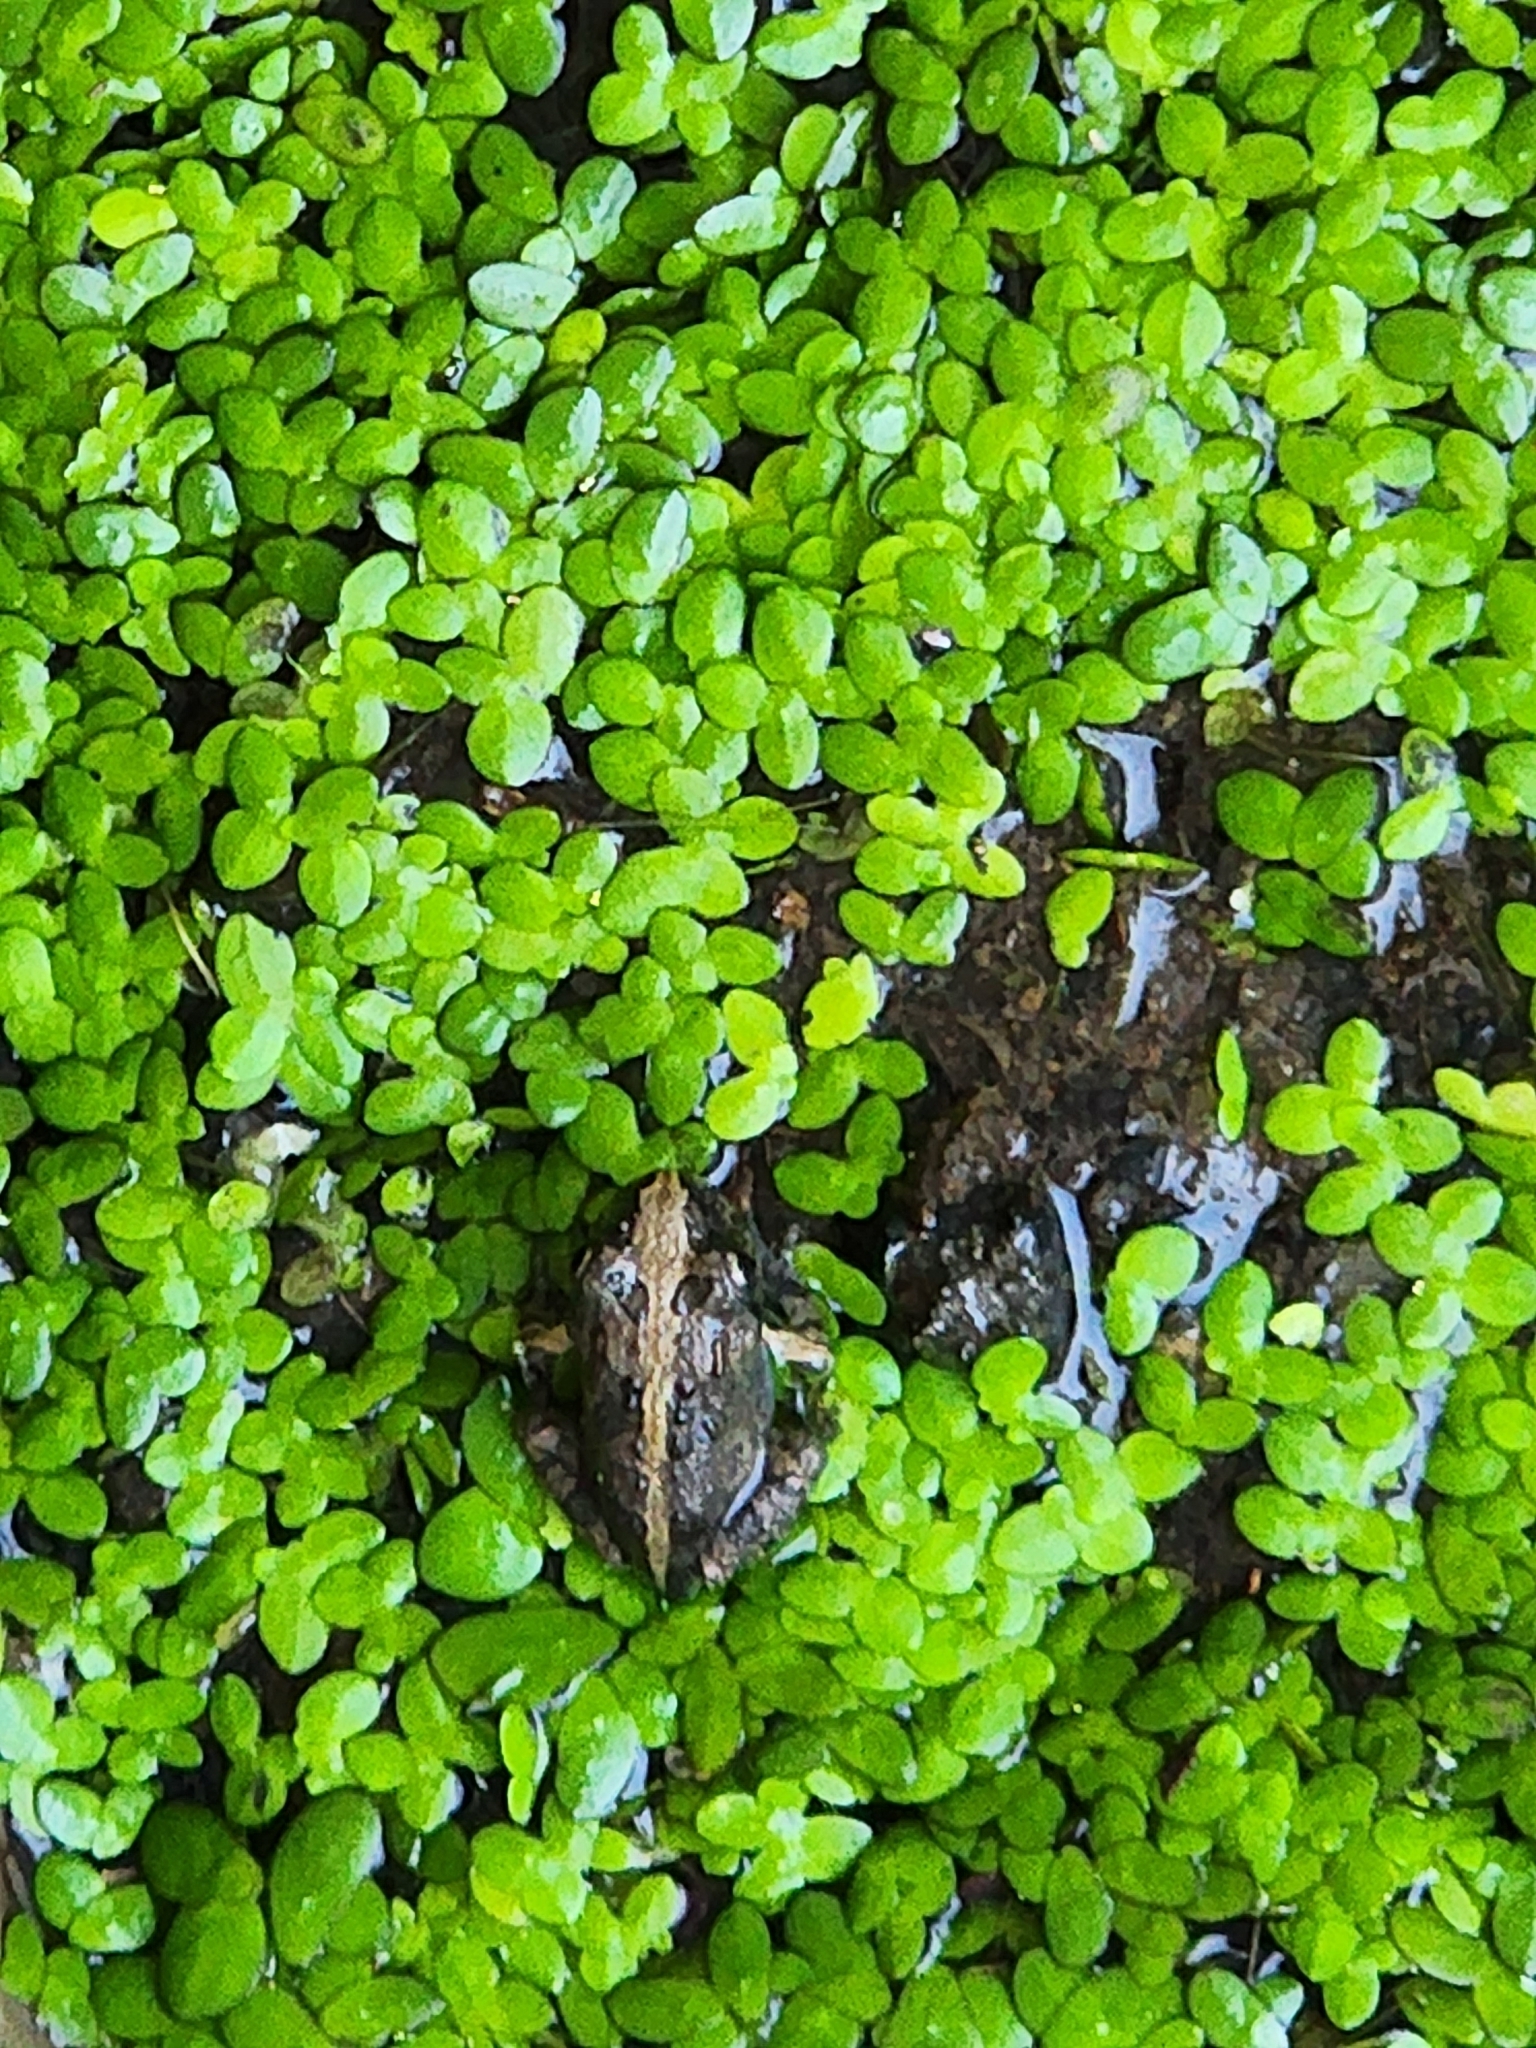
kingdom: Animalia
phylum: Chordata
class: Amphibia
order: Anura
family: Limnodynastidae
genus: Platyplectrum
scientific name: Platyplectrum ornatum
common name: Ornate burrowing frog
